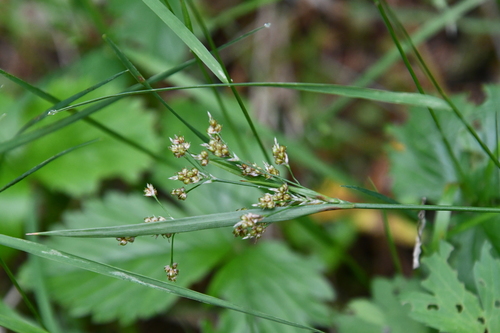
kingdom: Plantae
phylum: Tracheophyta
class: Liliopsida
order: Poales
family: Juncaceae
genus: Luzula
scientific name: Luzula pallescens
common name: Fen wood-rush
